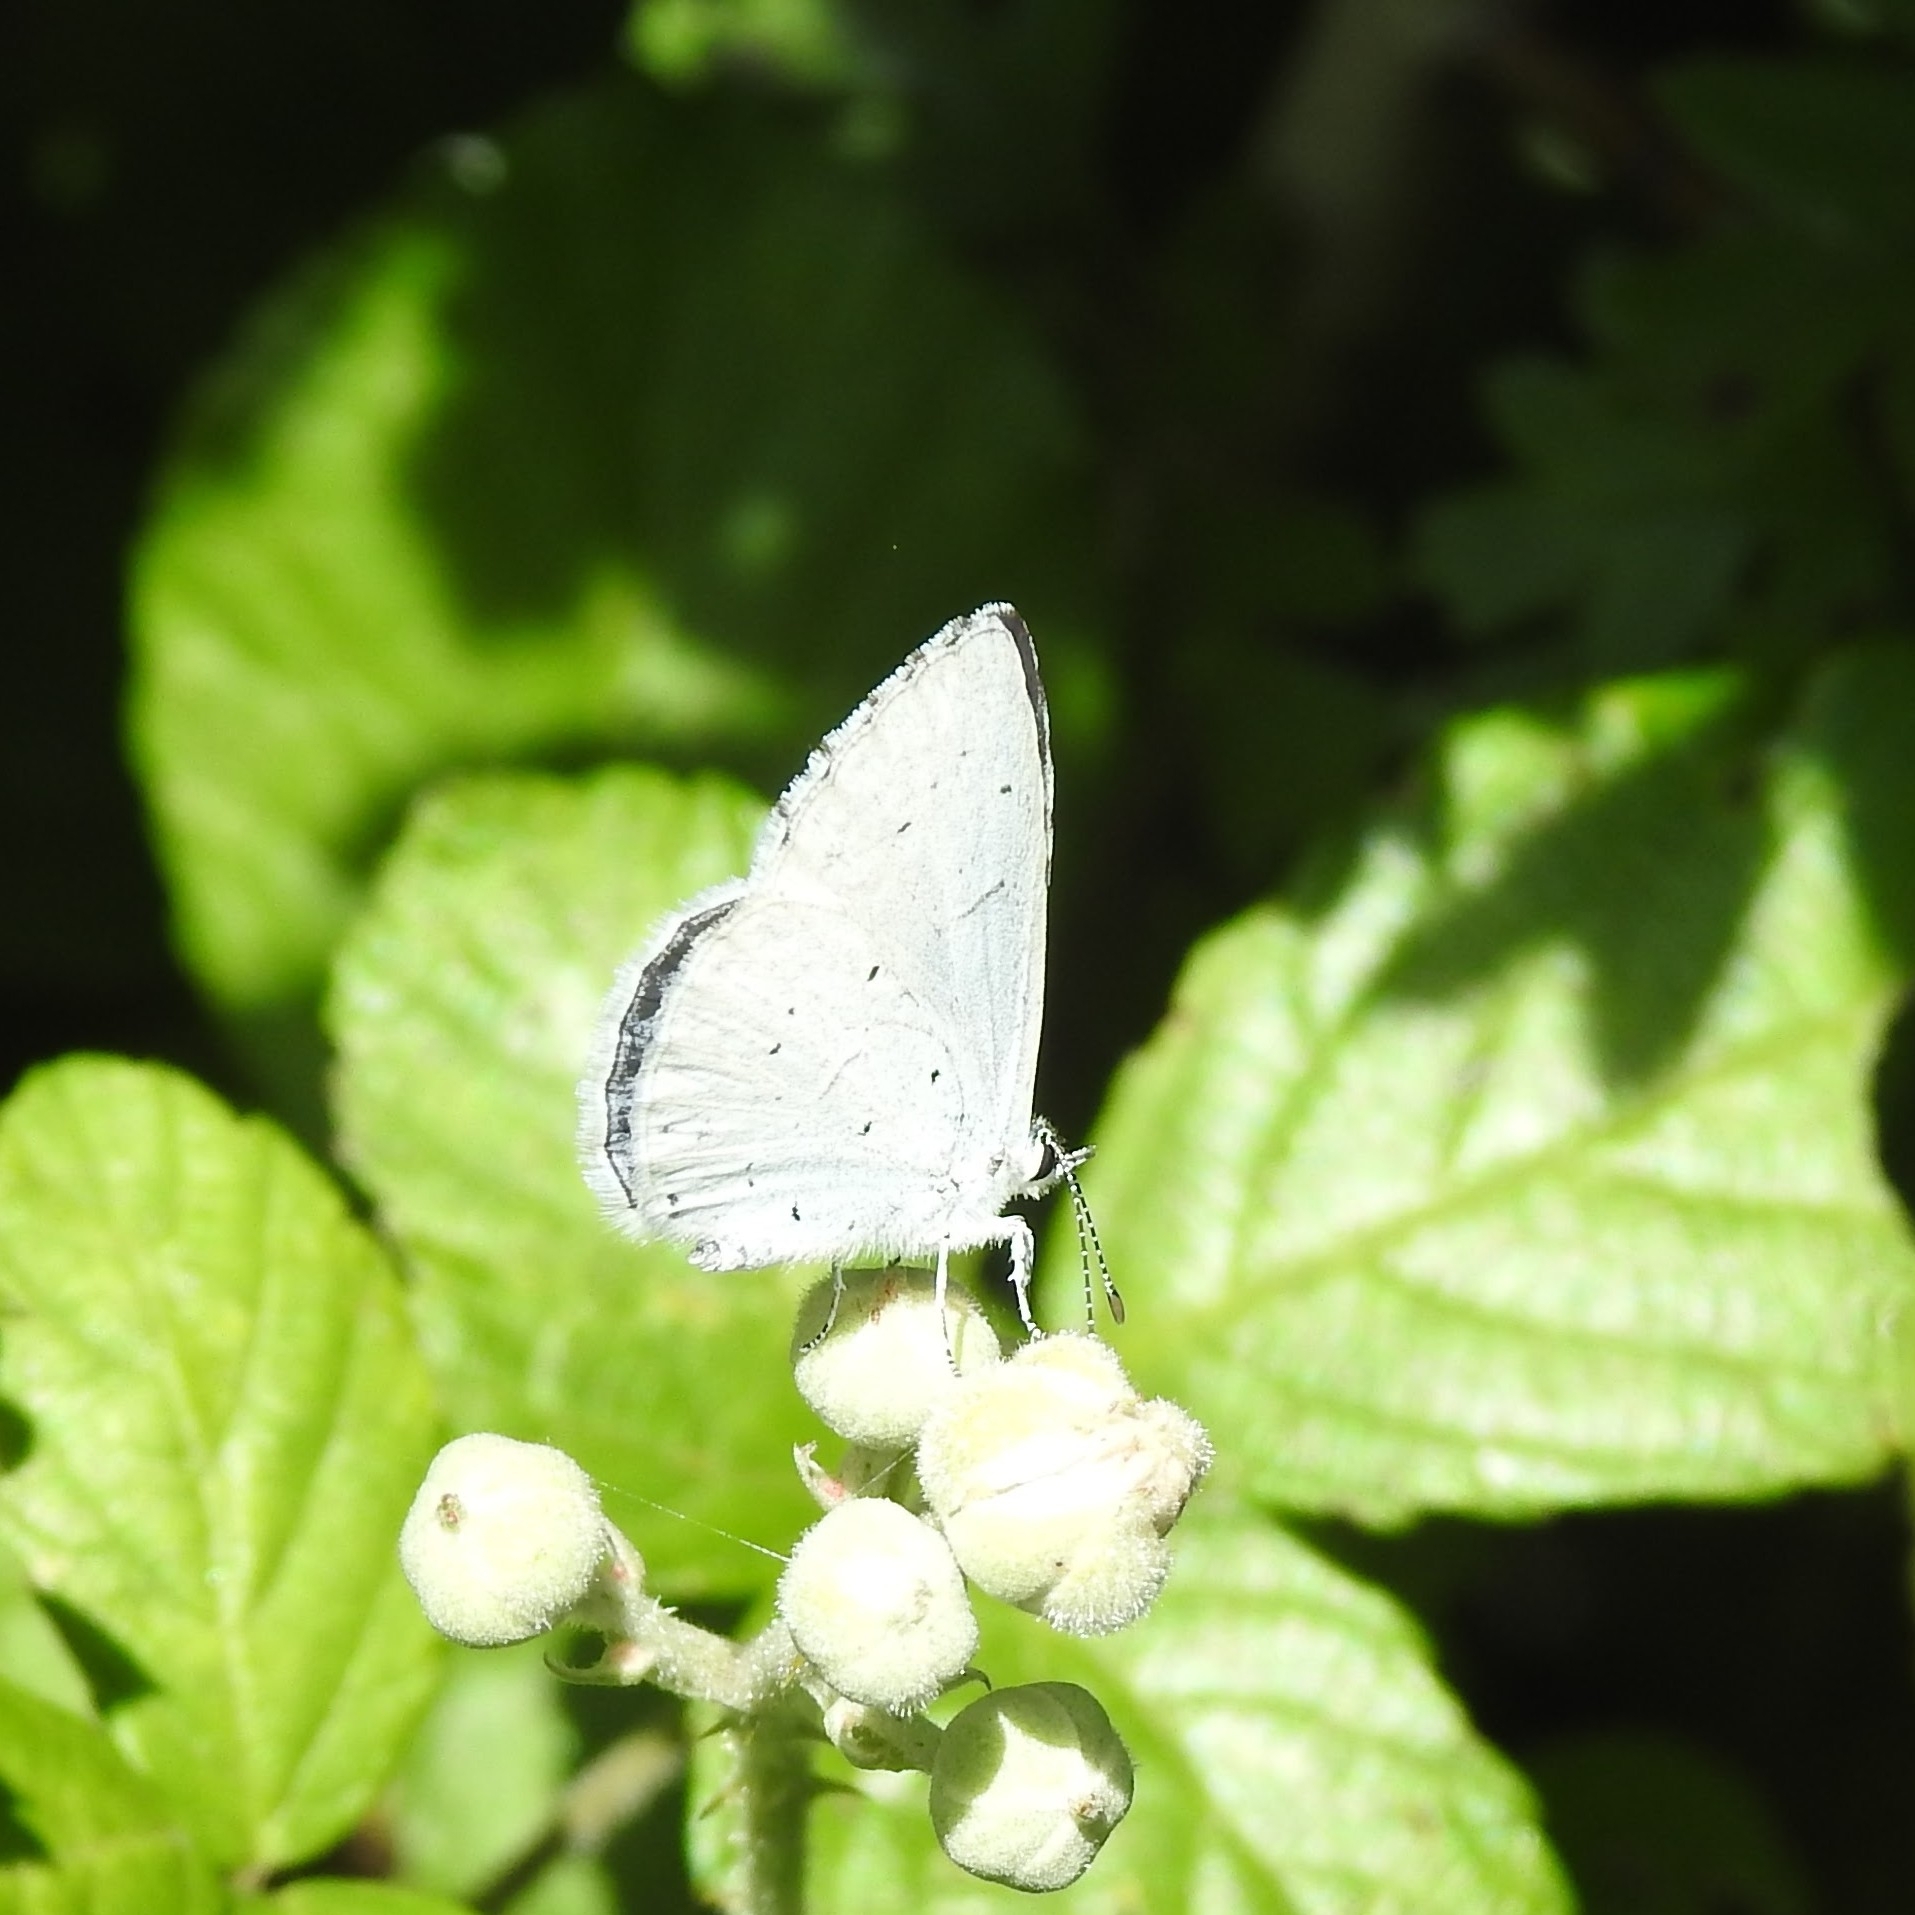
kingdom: Animalia
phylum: Arthropoda
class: Insecta
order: Lepidoptera
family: Lycaenidae
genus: Celastrina
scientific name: Celastrina argiolus
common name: Holly blue
